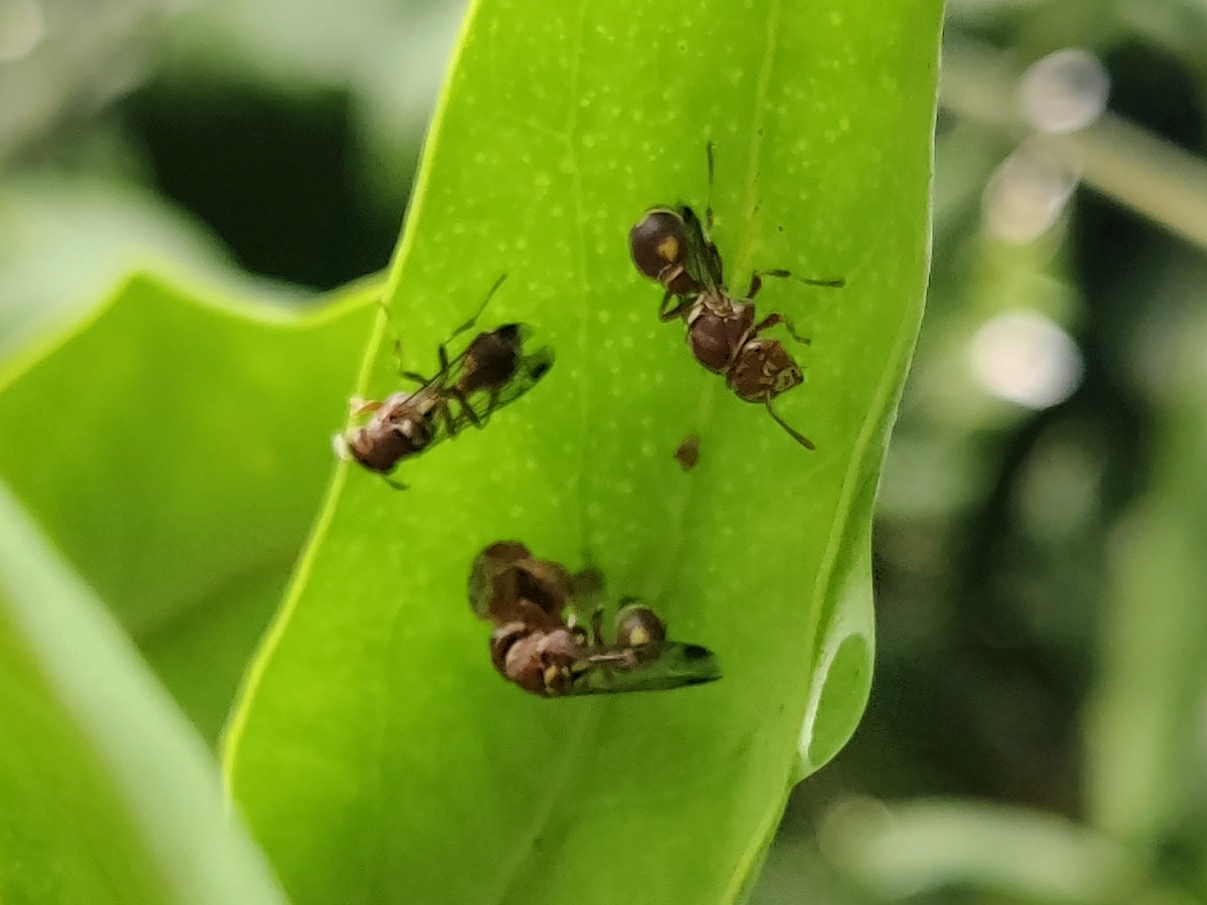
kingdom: Animalia
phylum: Arthropoda
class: Insecta
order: Hymenoptera
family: Vespidae
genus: Ropalidia
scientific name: Ropalidia cyathiformis
